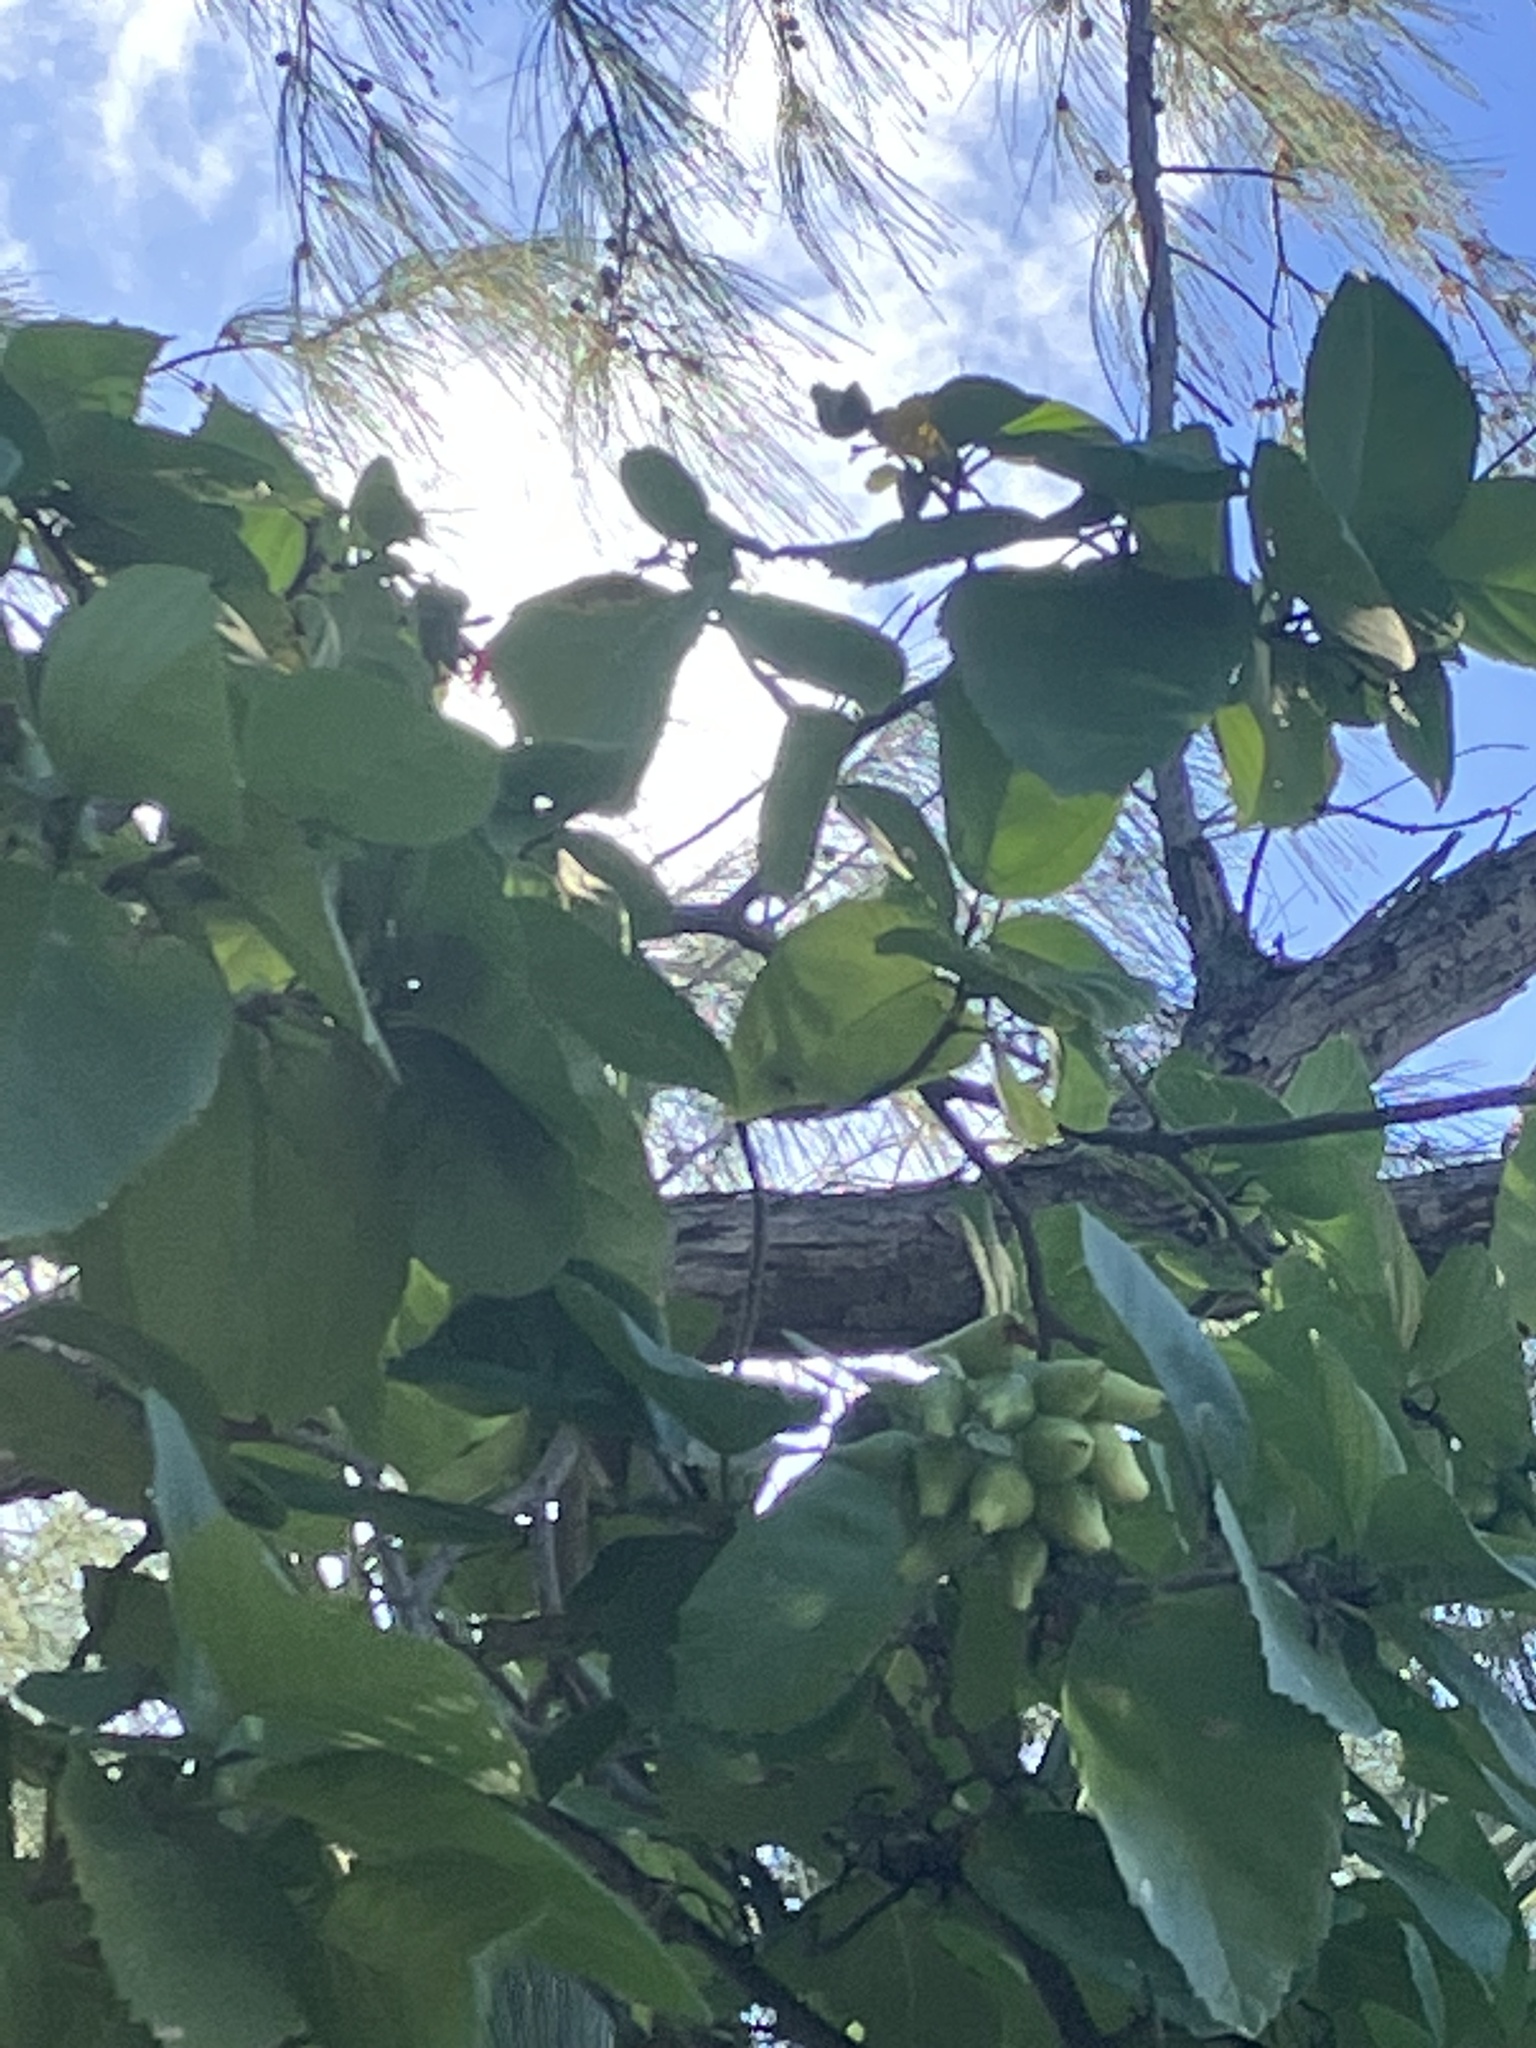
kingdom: Plantae
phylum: Tracheophyta
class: Magnoliopsida
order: Boraginales
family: Cordiaceae
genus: Cordia
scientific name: Cordia sebestena
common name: Largeleaf geigertree
